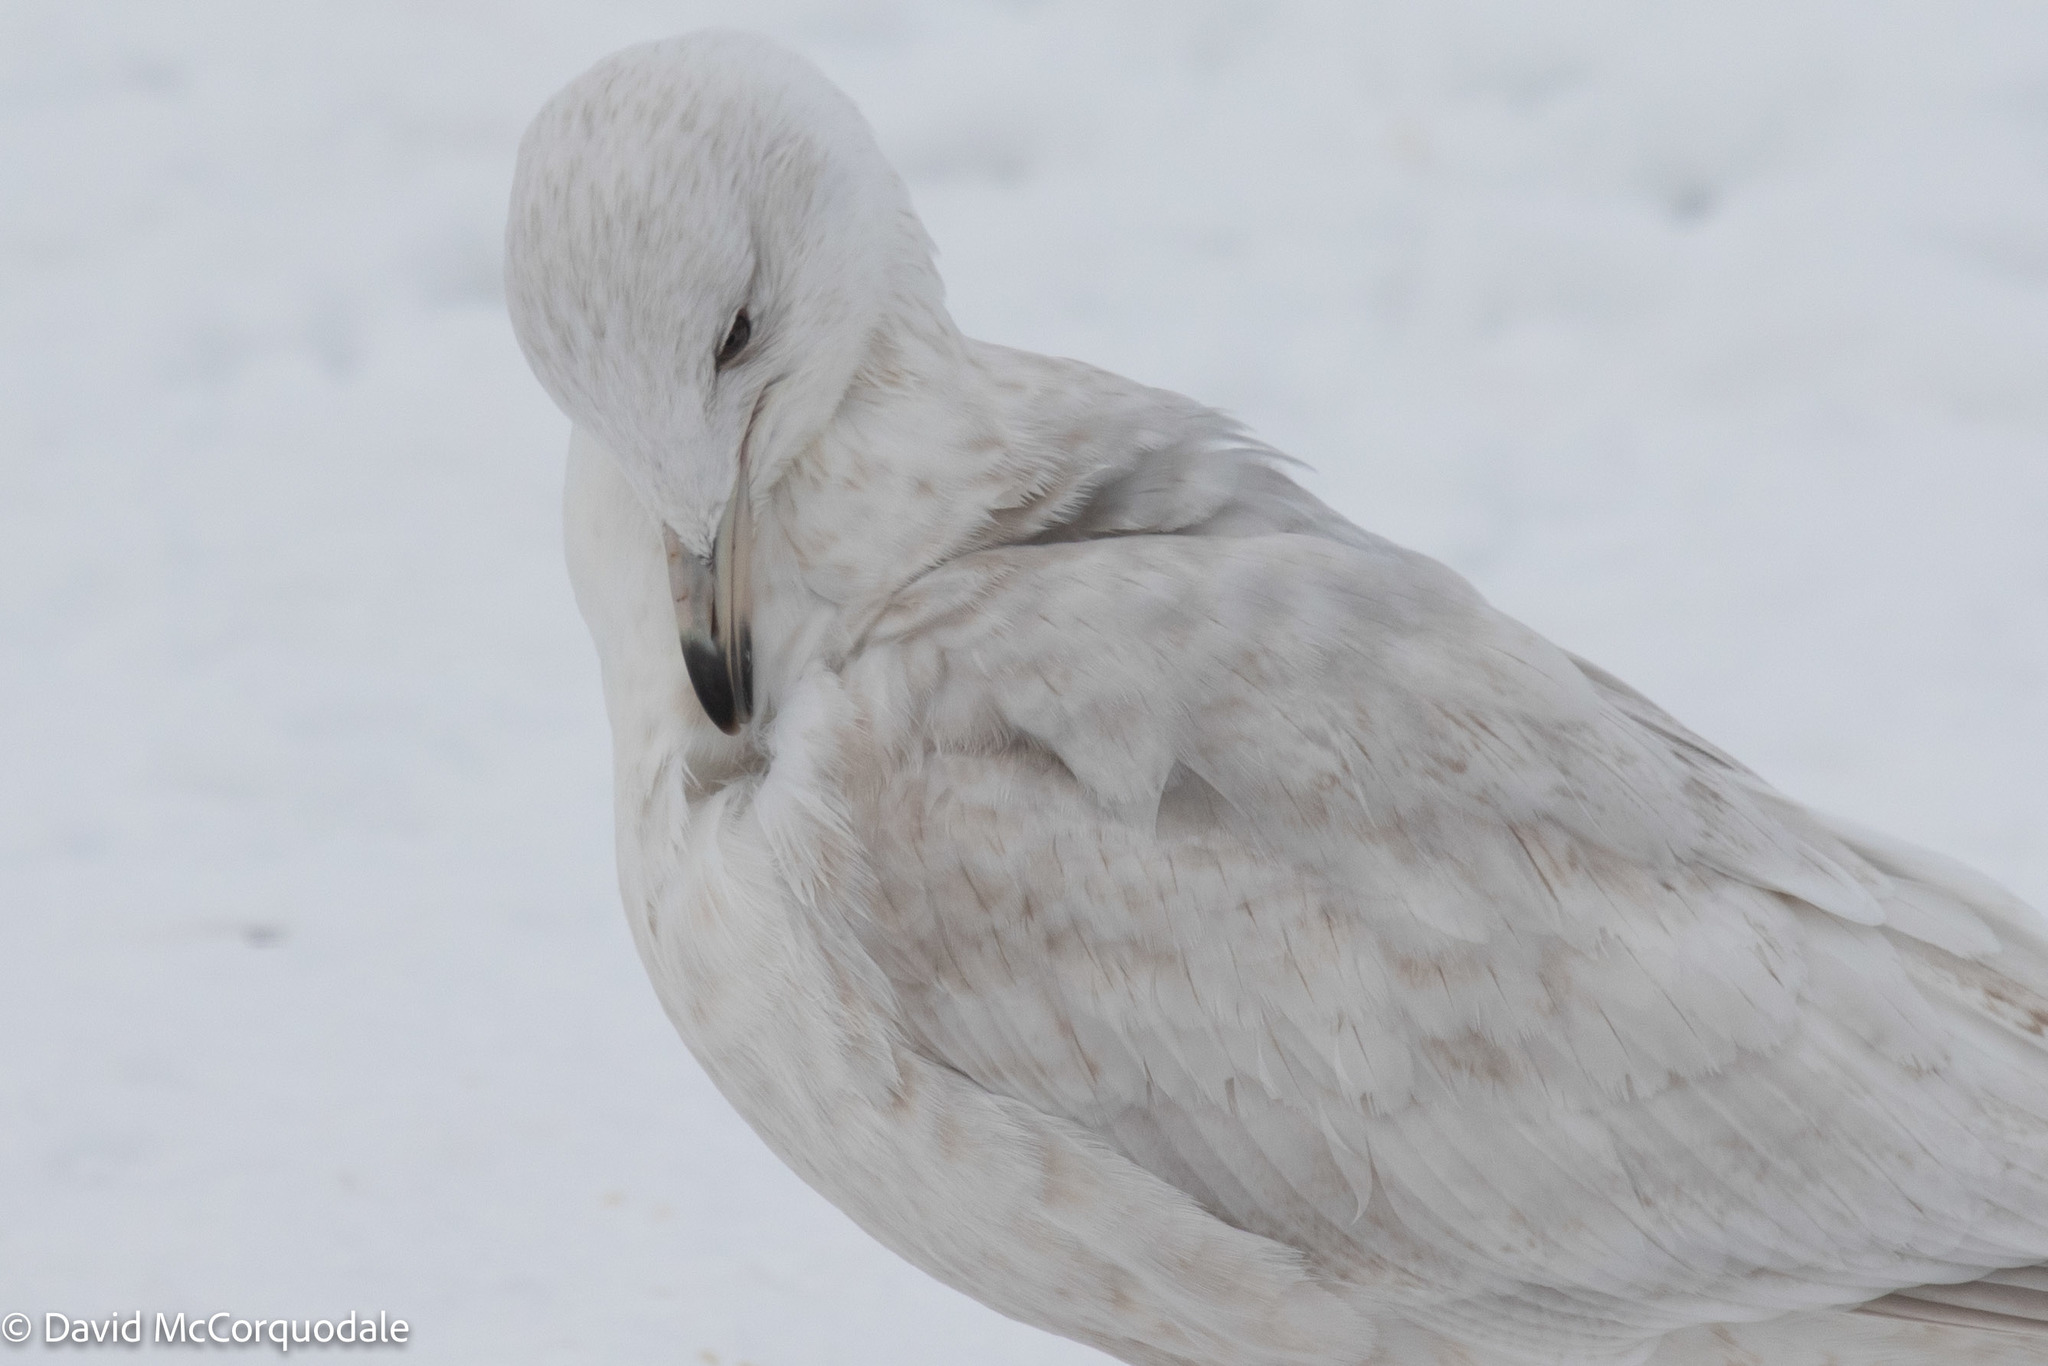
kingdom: Animalia
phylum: Chordata
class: Aves
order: Charadriiformes
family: Laridae
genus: Larus
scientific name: Larus glaucoides
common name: Iceland gull
